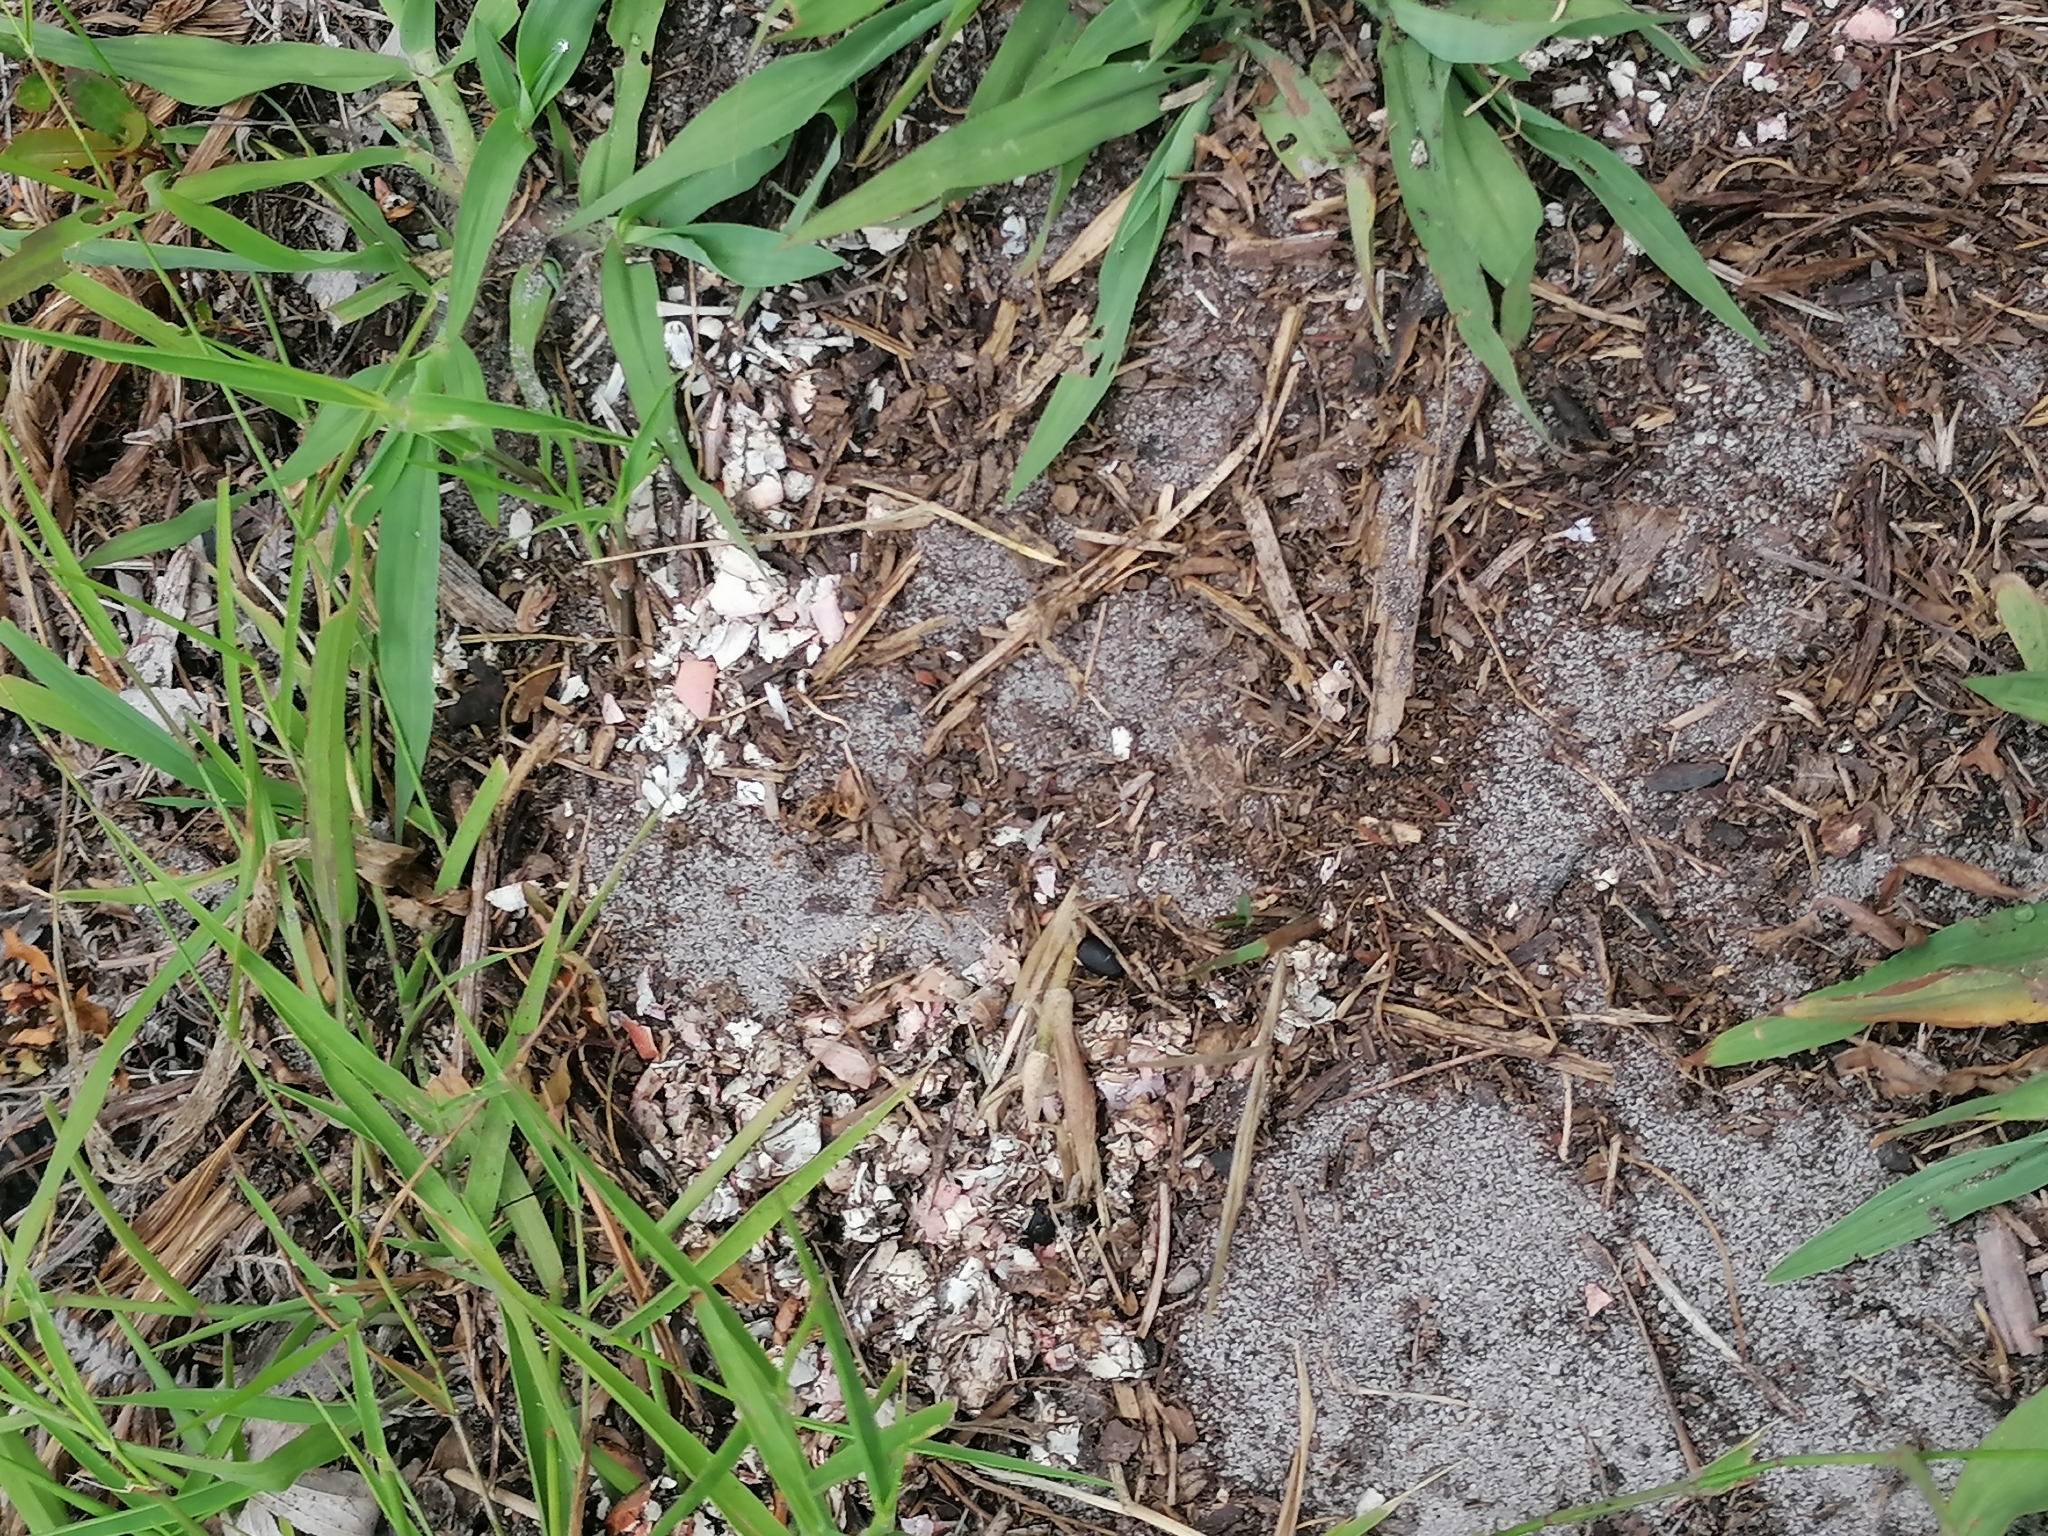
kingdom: Animalia
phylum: Chordata
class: Mammalia
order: Carnivora
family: Mustelidae
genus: Aonyx
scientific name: Aonyx capensis
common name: African clawless otter
